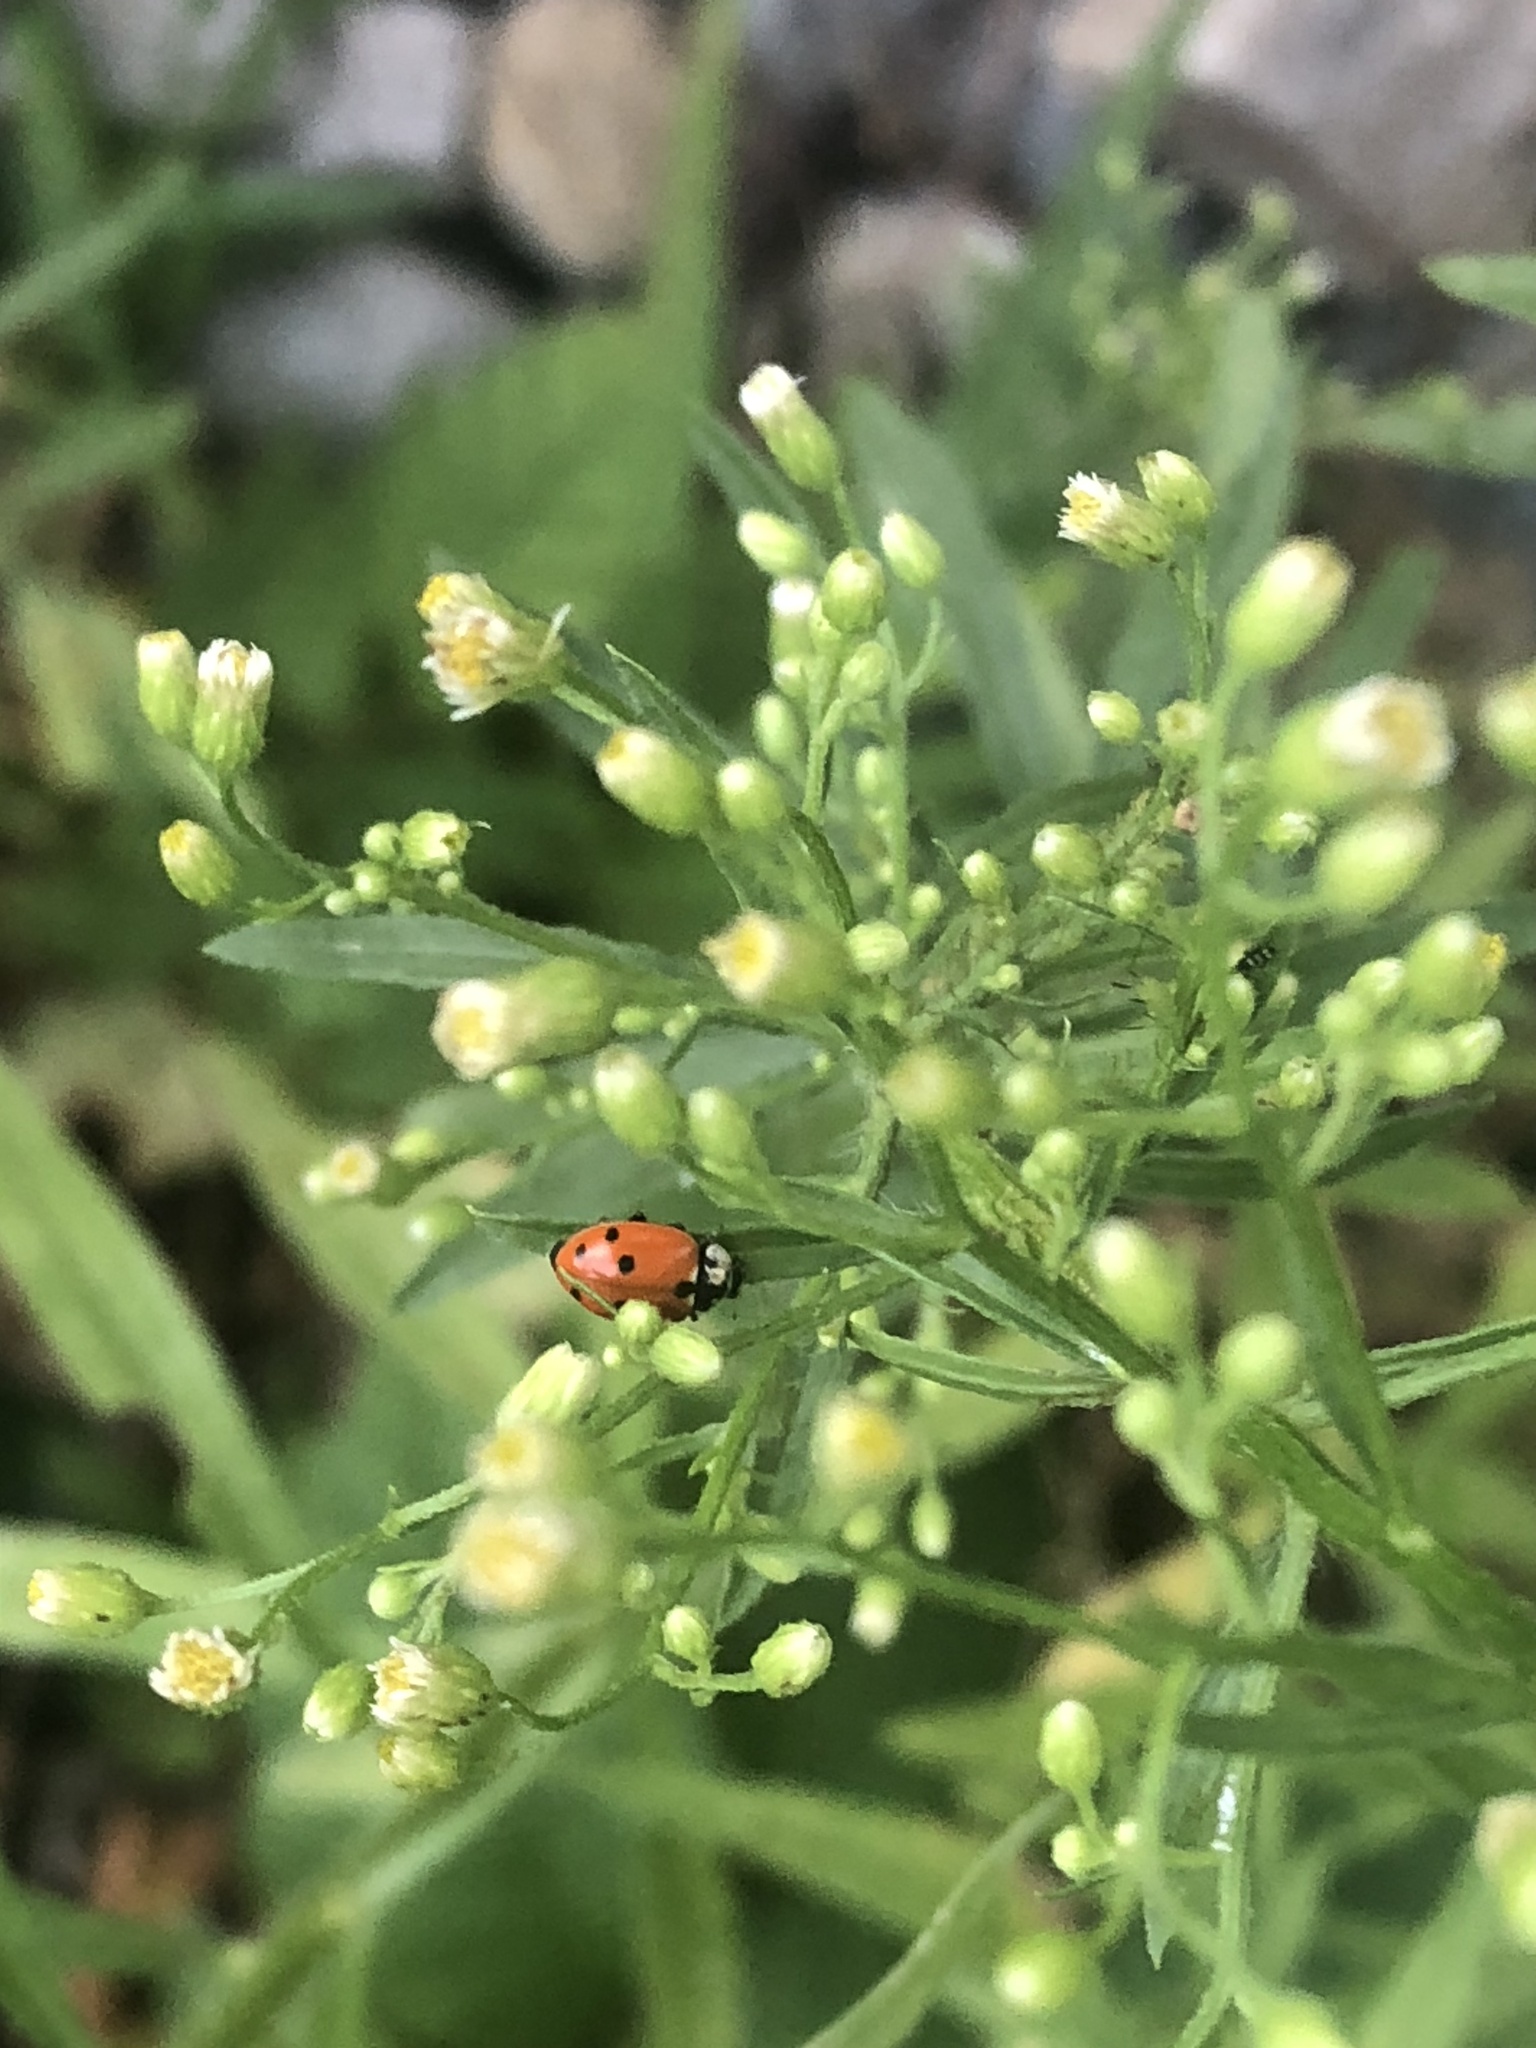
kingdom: Animalia
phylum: Arthropoda
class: Insecta
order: Coleoptera
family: Coccinellidae
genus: Hippodamia
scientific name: Hippodamia variegata
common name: Ladybird beetle
